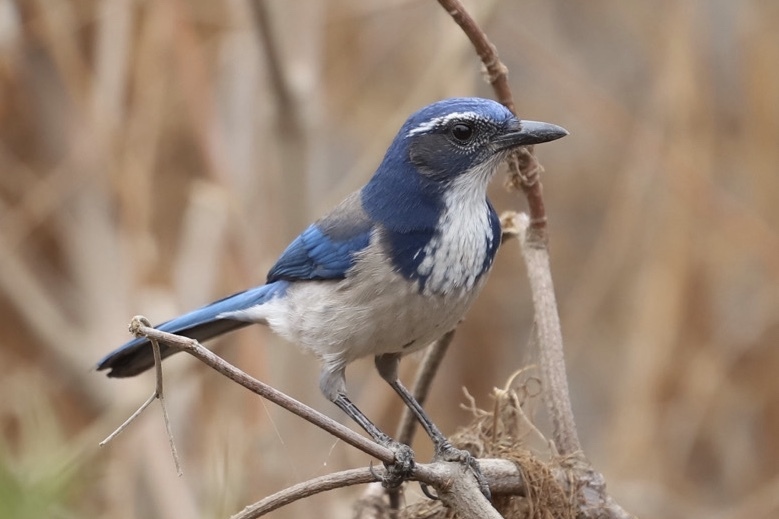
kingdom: Animalia
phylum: Chordata
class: Aves
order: Passeriformes
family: Corvidae
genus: Aphelocoma
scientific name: Aphelocoma californica
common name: California scrub-jay
